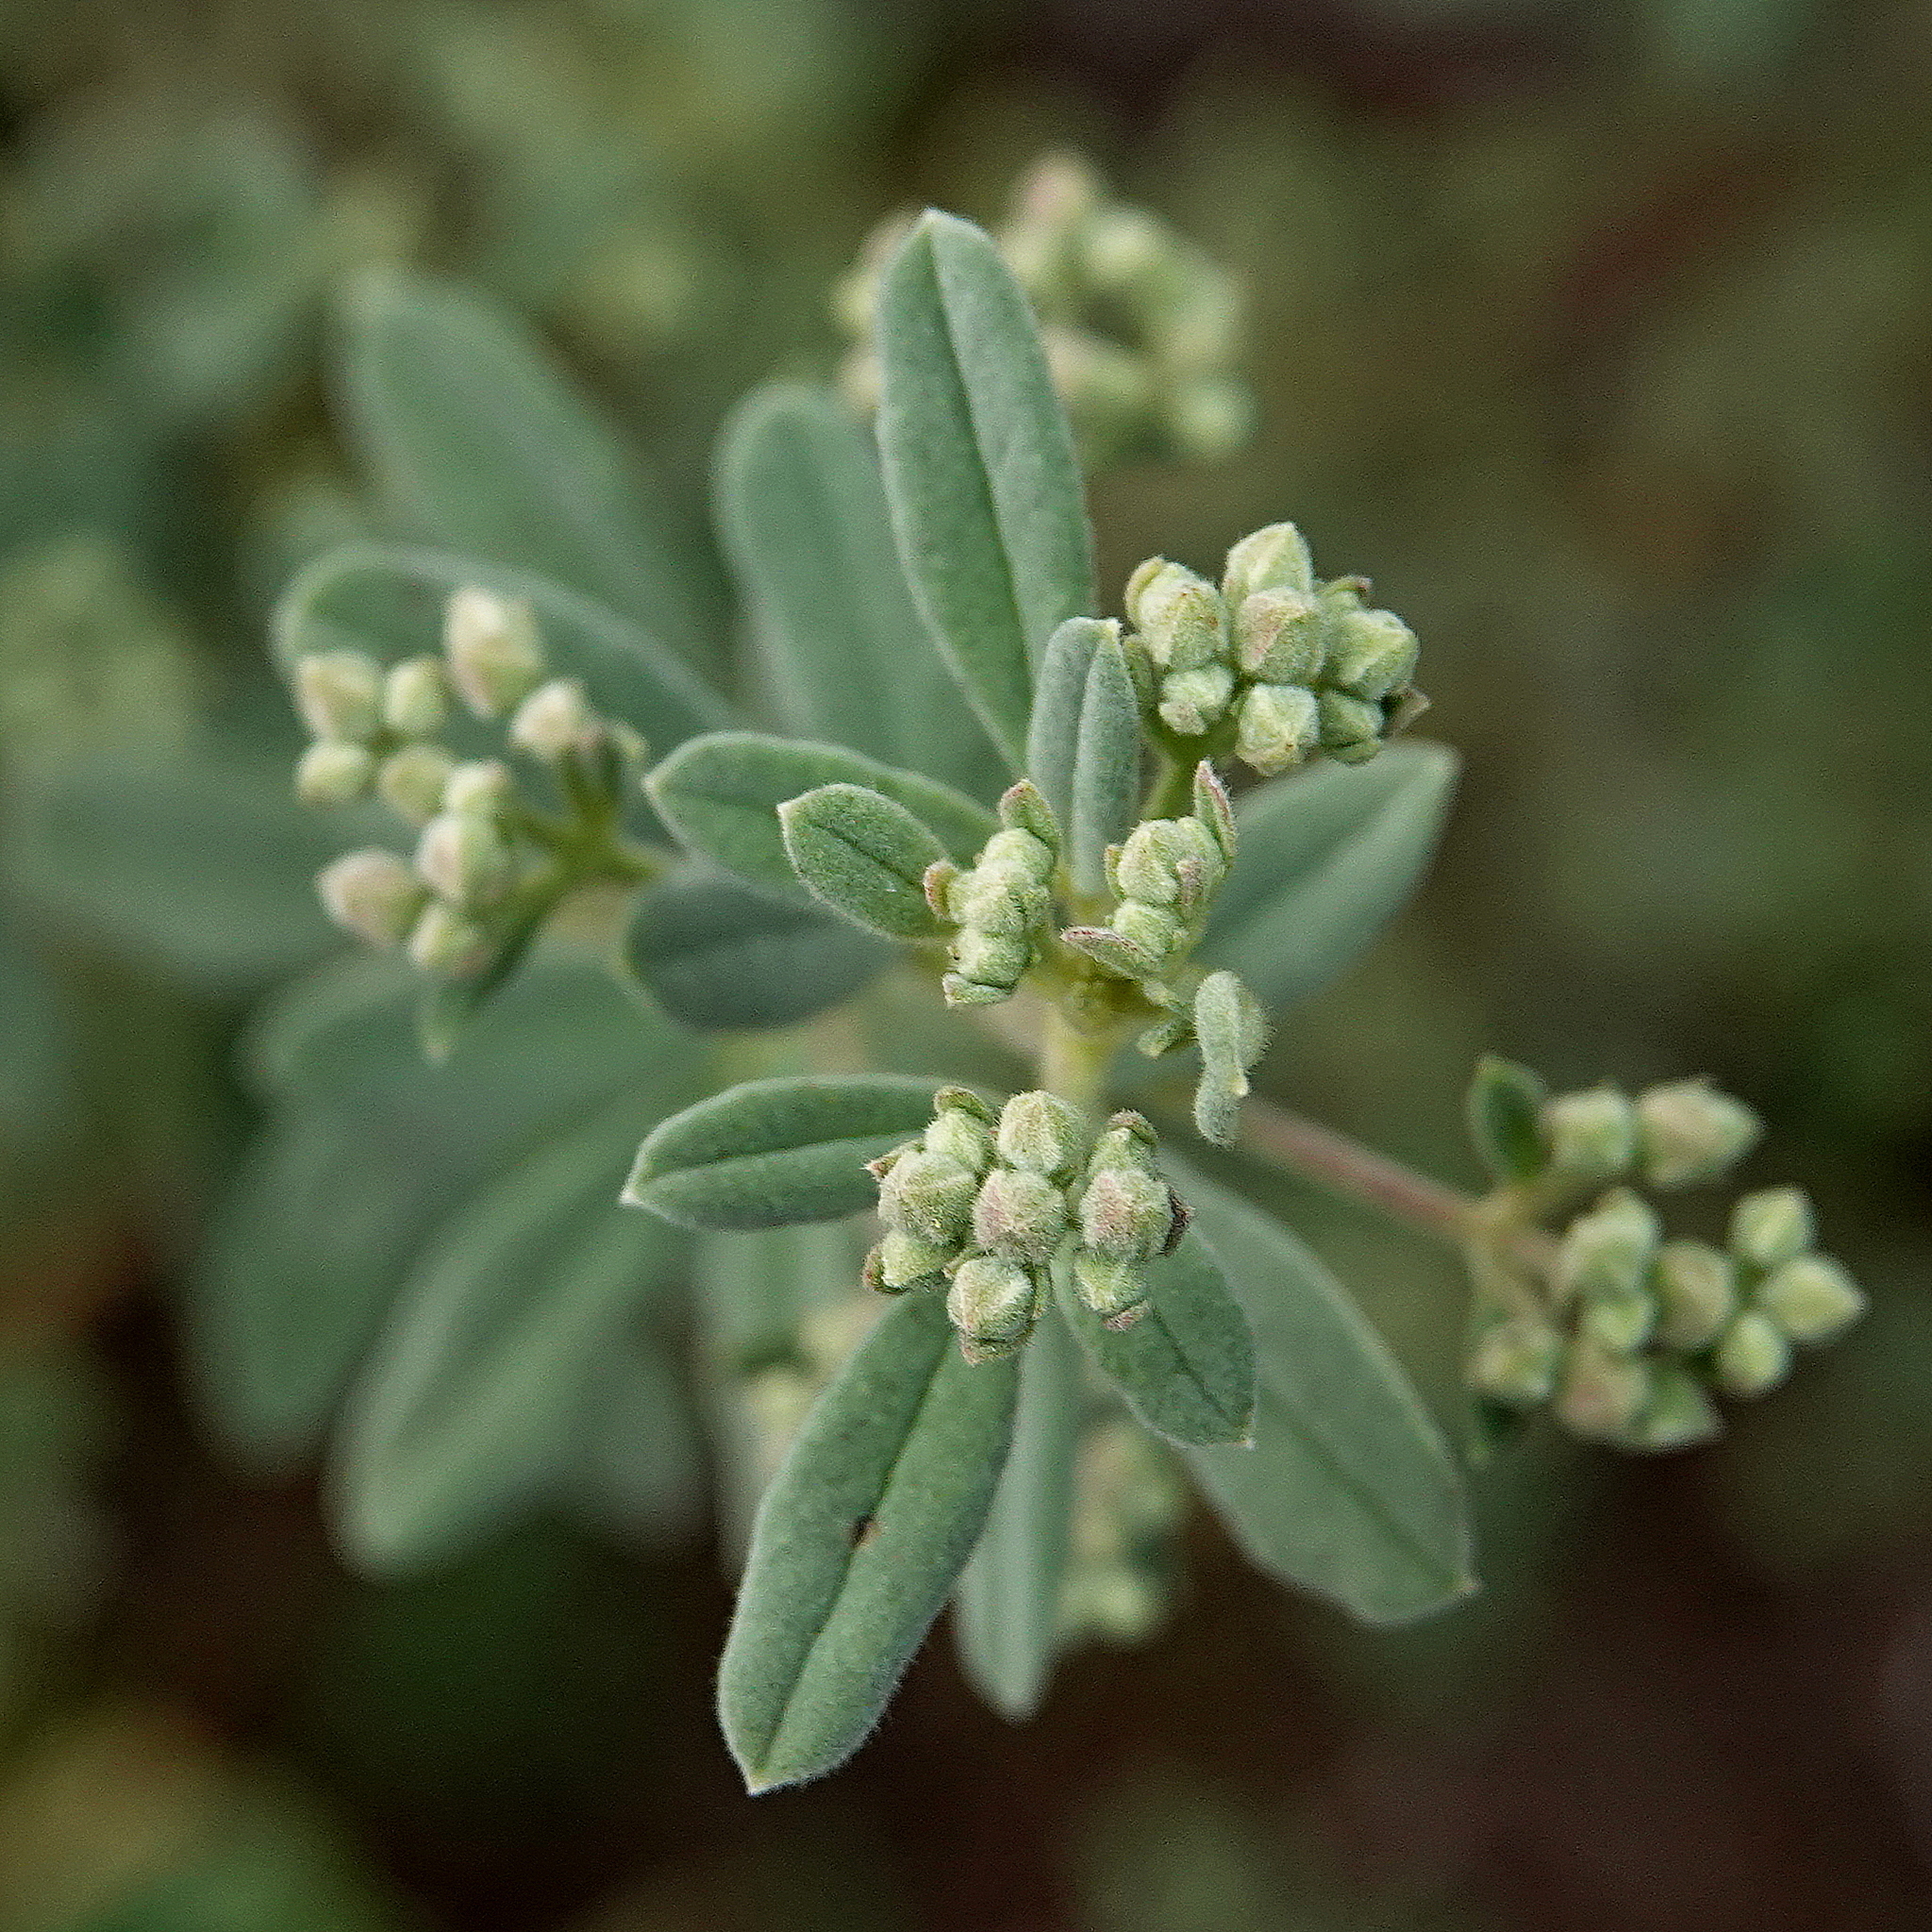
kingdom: Plantae
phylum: Tracheophyta
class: Magnoliopsida
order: Sapindales
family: Rutaceae
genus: Zieria
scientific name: Zieria cytisoides
